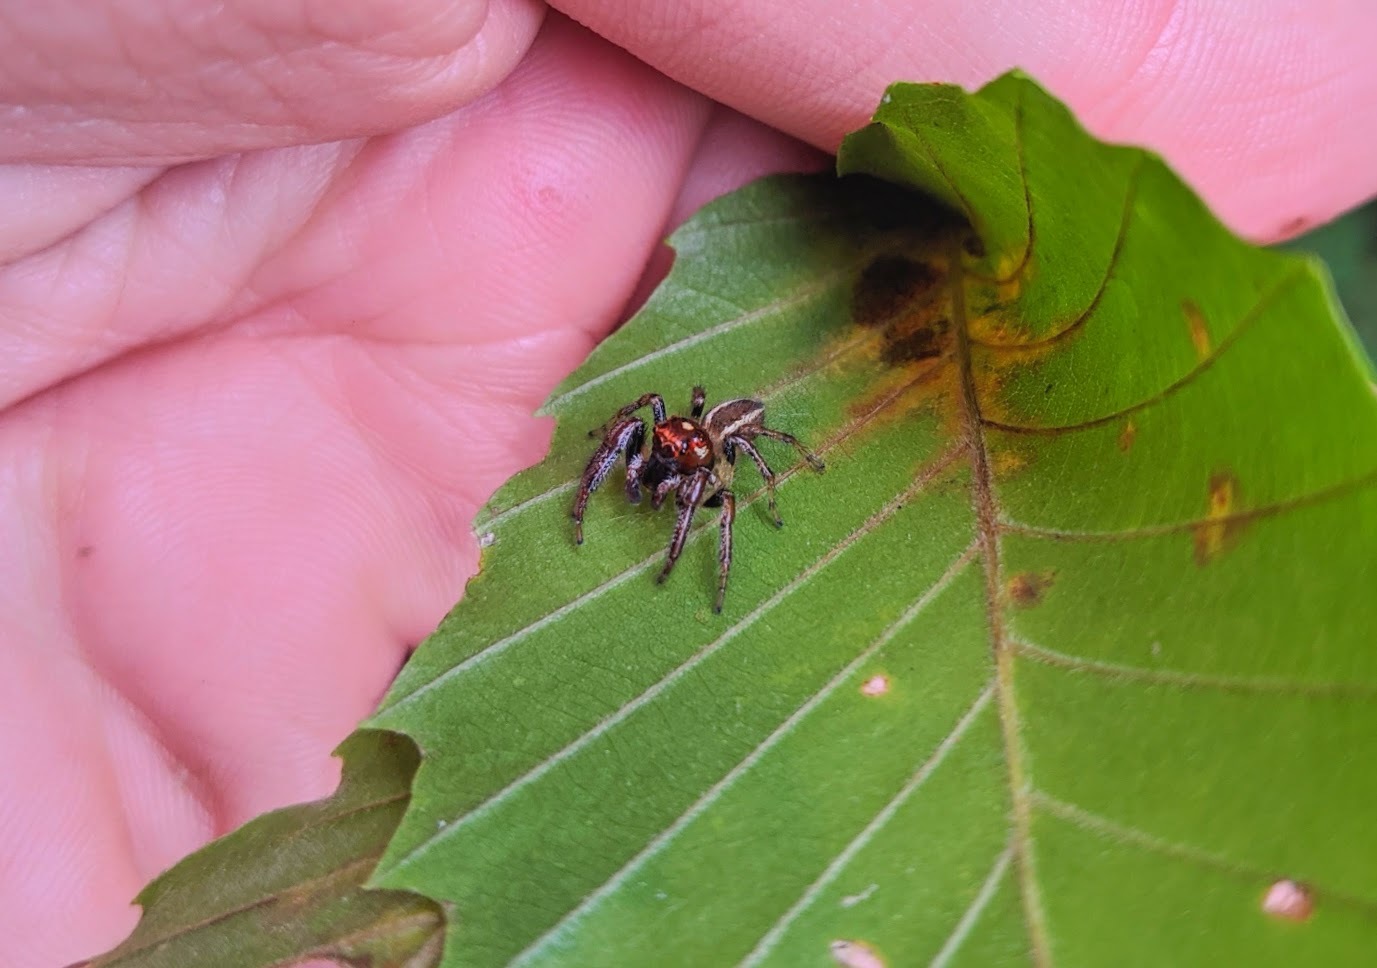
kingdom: Animalia
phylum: Arthropoda
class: Arachnida
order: Araneae
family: Salticidae
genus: Colonus
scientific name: Colonus sylvanus
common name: Jumping spiders
